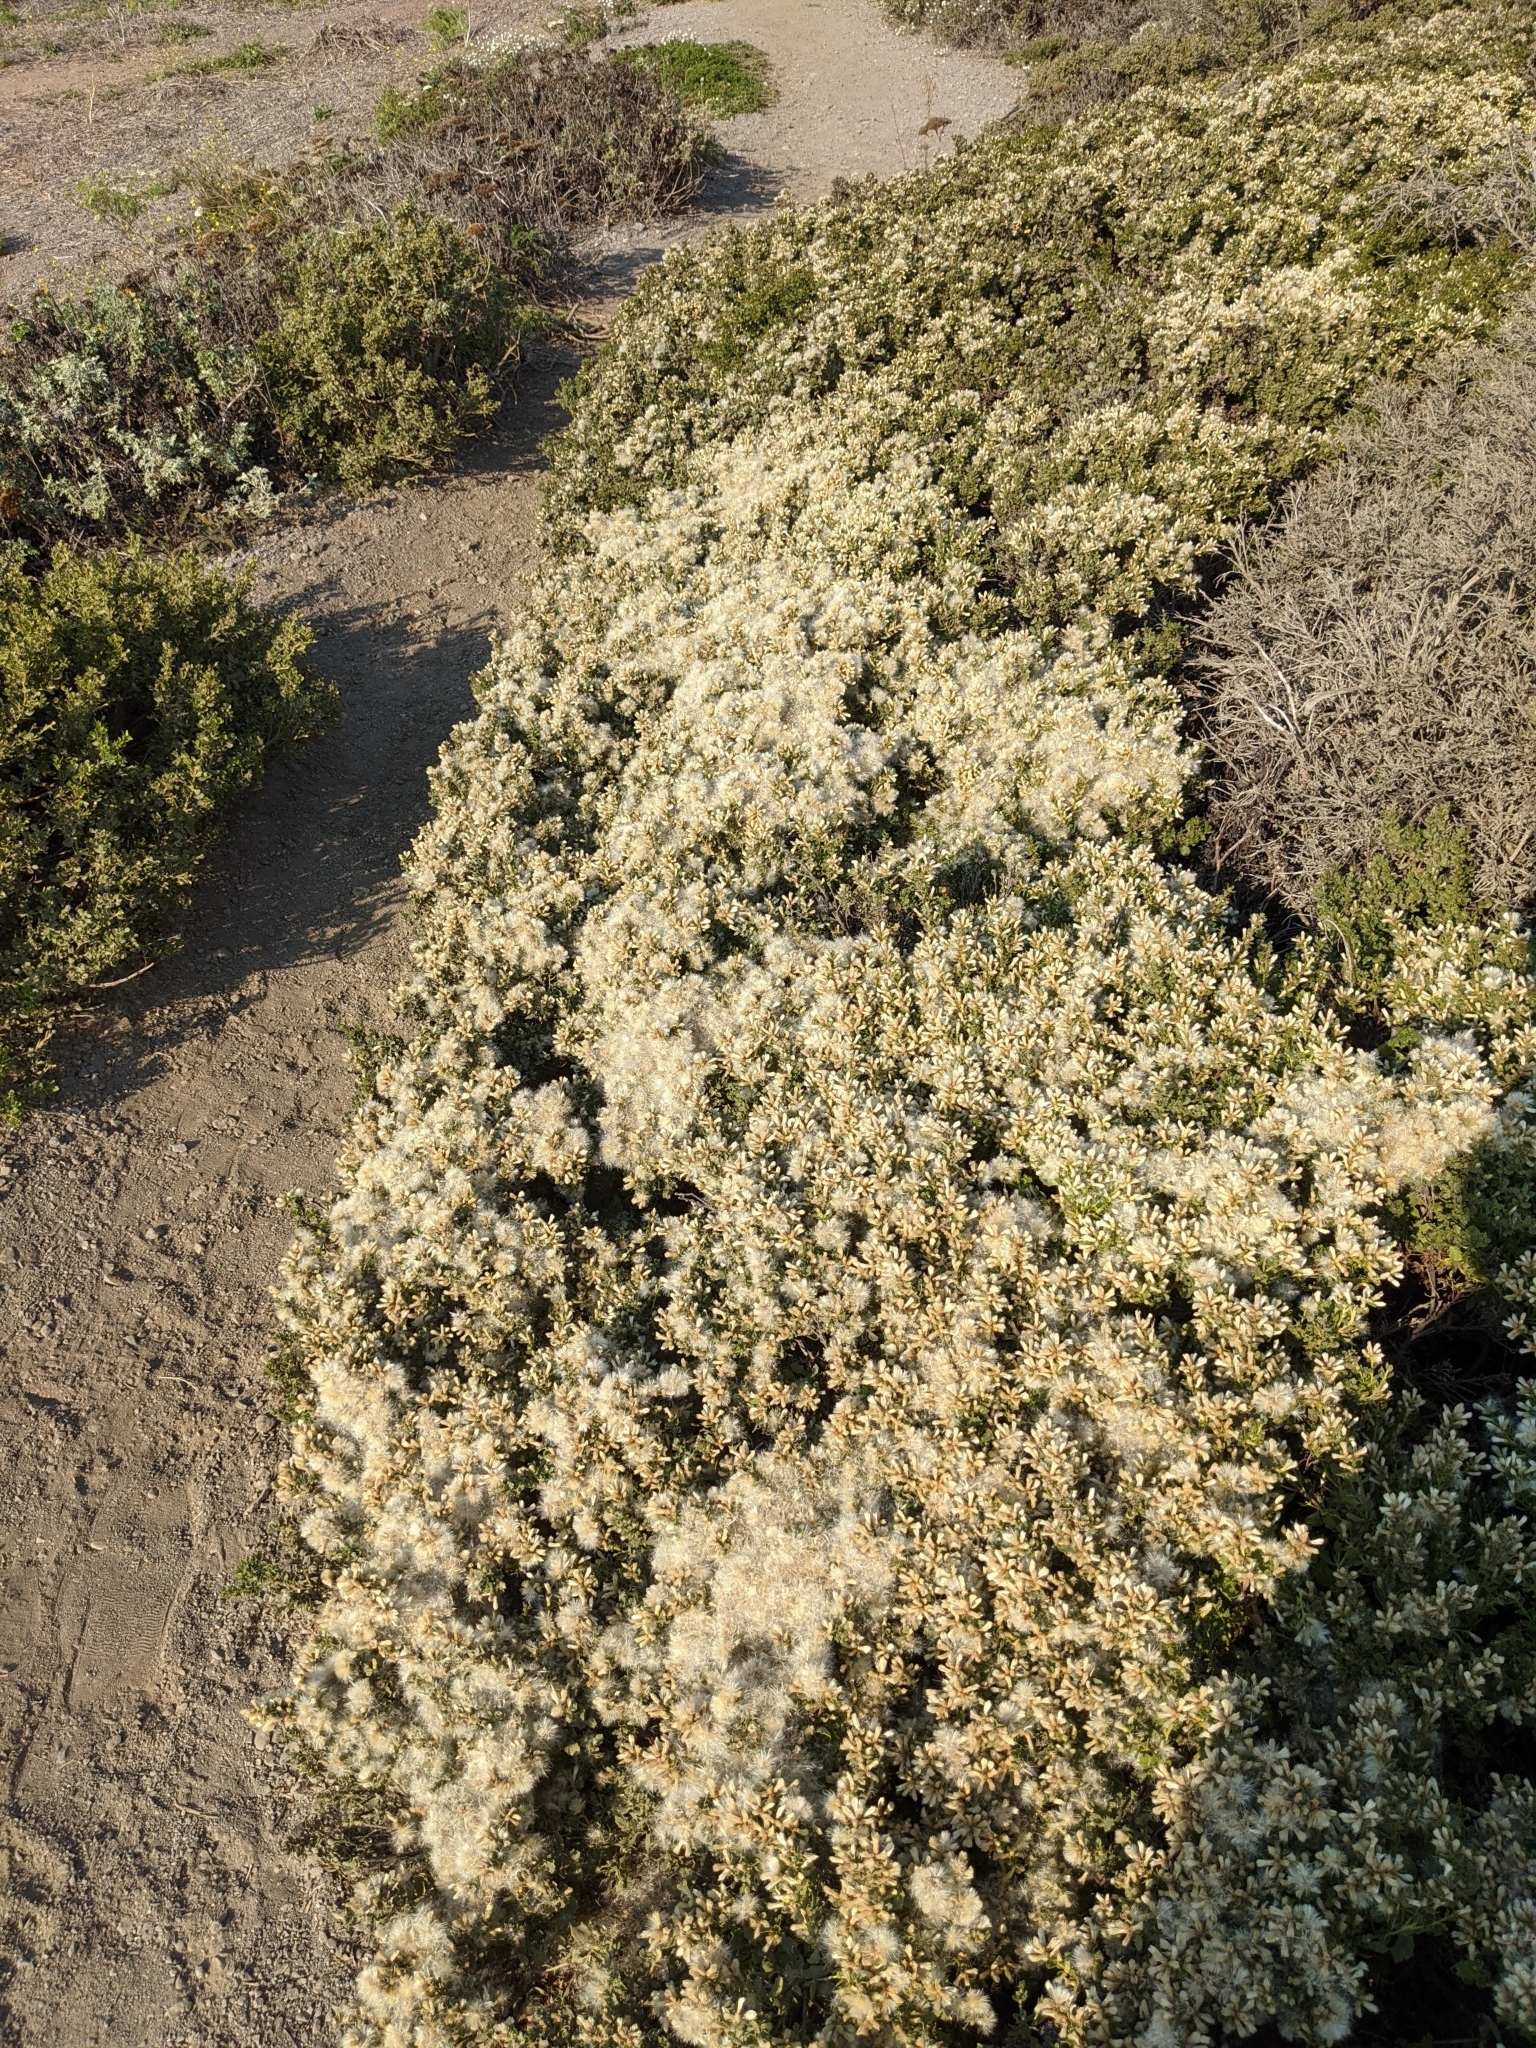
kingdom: Plantae
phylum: Tracheophyta
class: Magnoliopsida
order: Asterales
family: Asteraceae
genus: Baccharis
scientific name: Baccharis pilularis
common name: Coyotebrush
